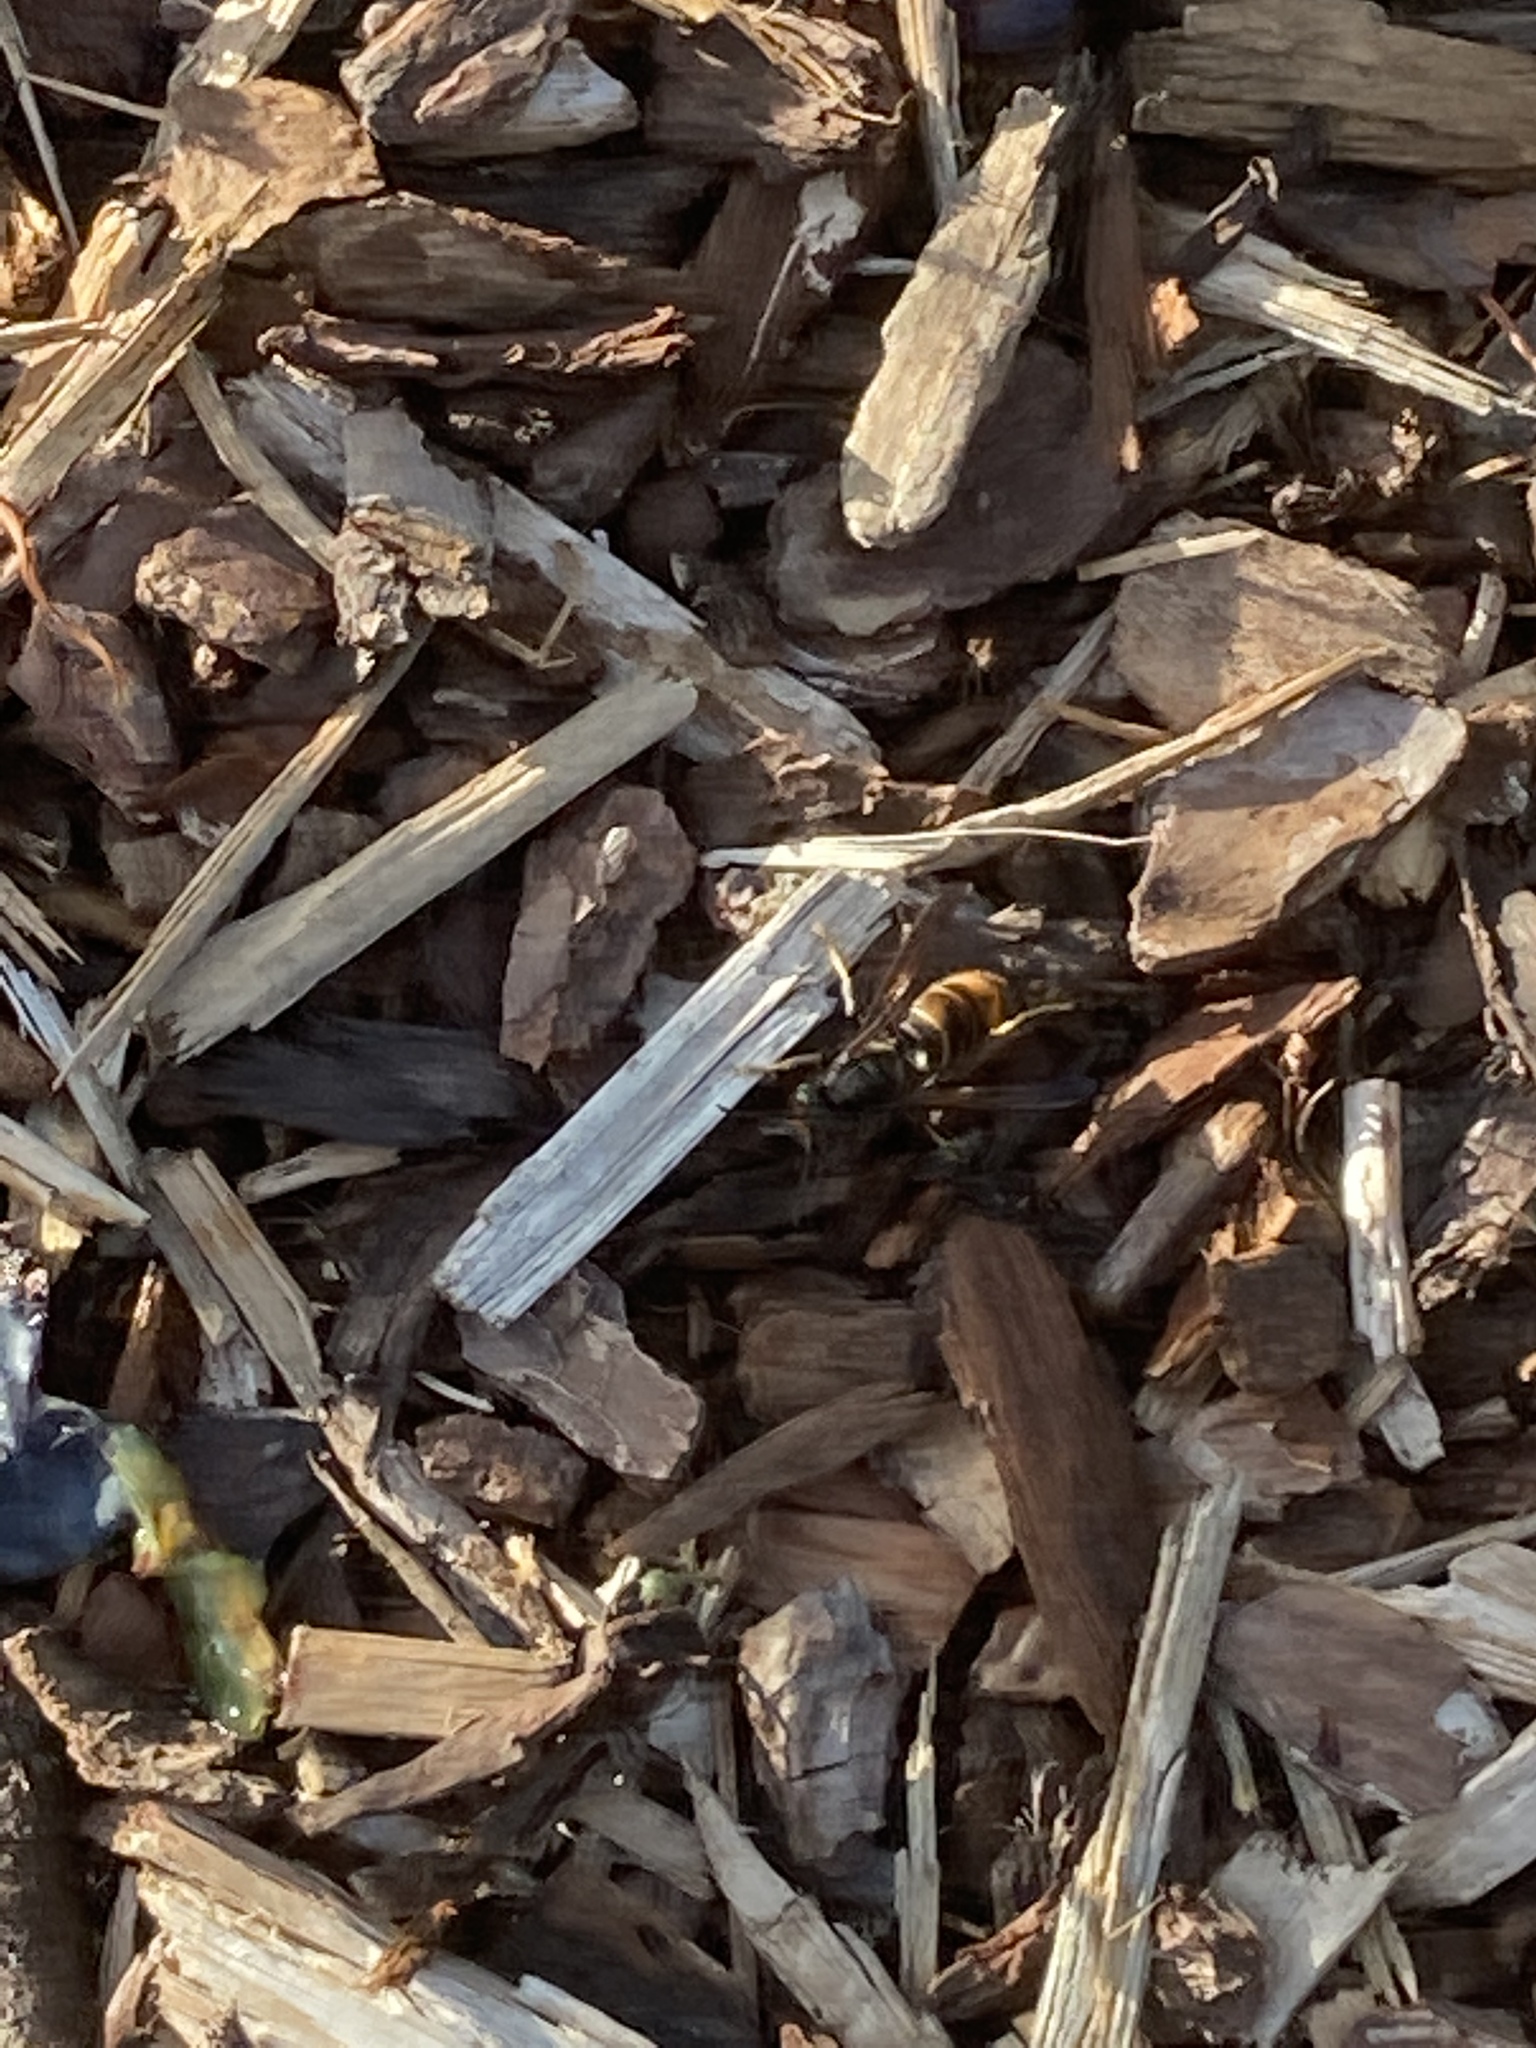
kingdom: Animalia
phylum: Arthropoda
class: Insecta
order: Hymenoptera
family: Vespidae
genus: Vespa
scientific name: Vespa velutina
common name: Asian hornet
